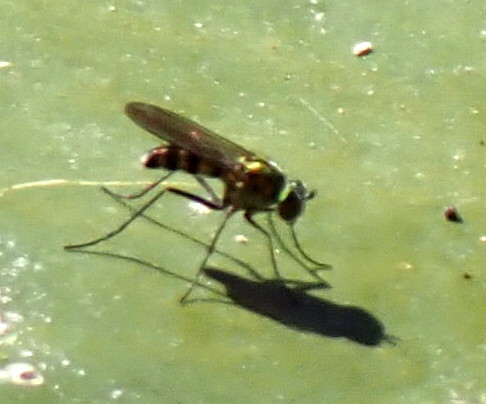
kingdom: Animalia
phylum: Arthropoda
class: Insecta
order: Diptera
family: Dolichopodidae
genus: Plagioneurus
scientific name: Plagioneurus univittatus
